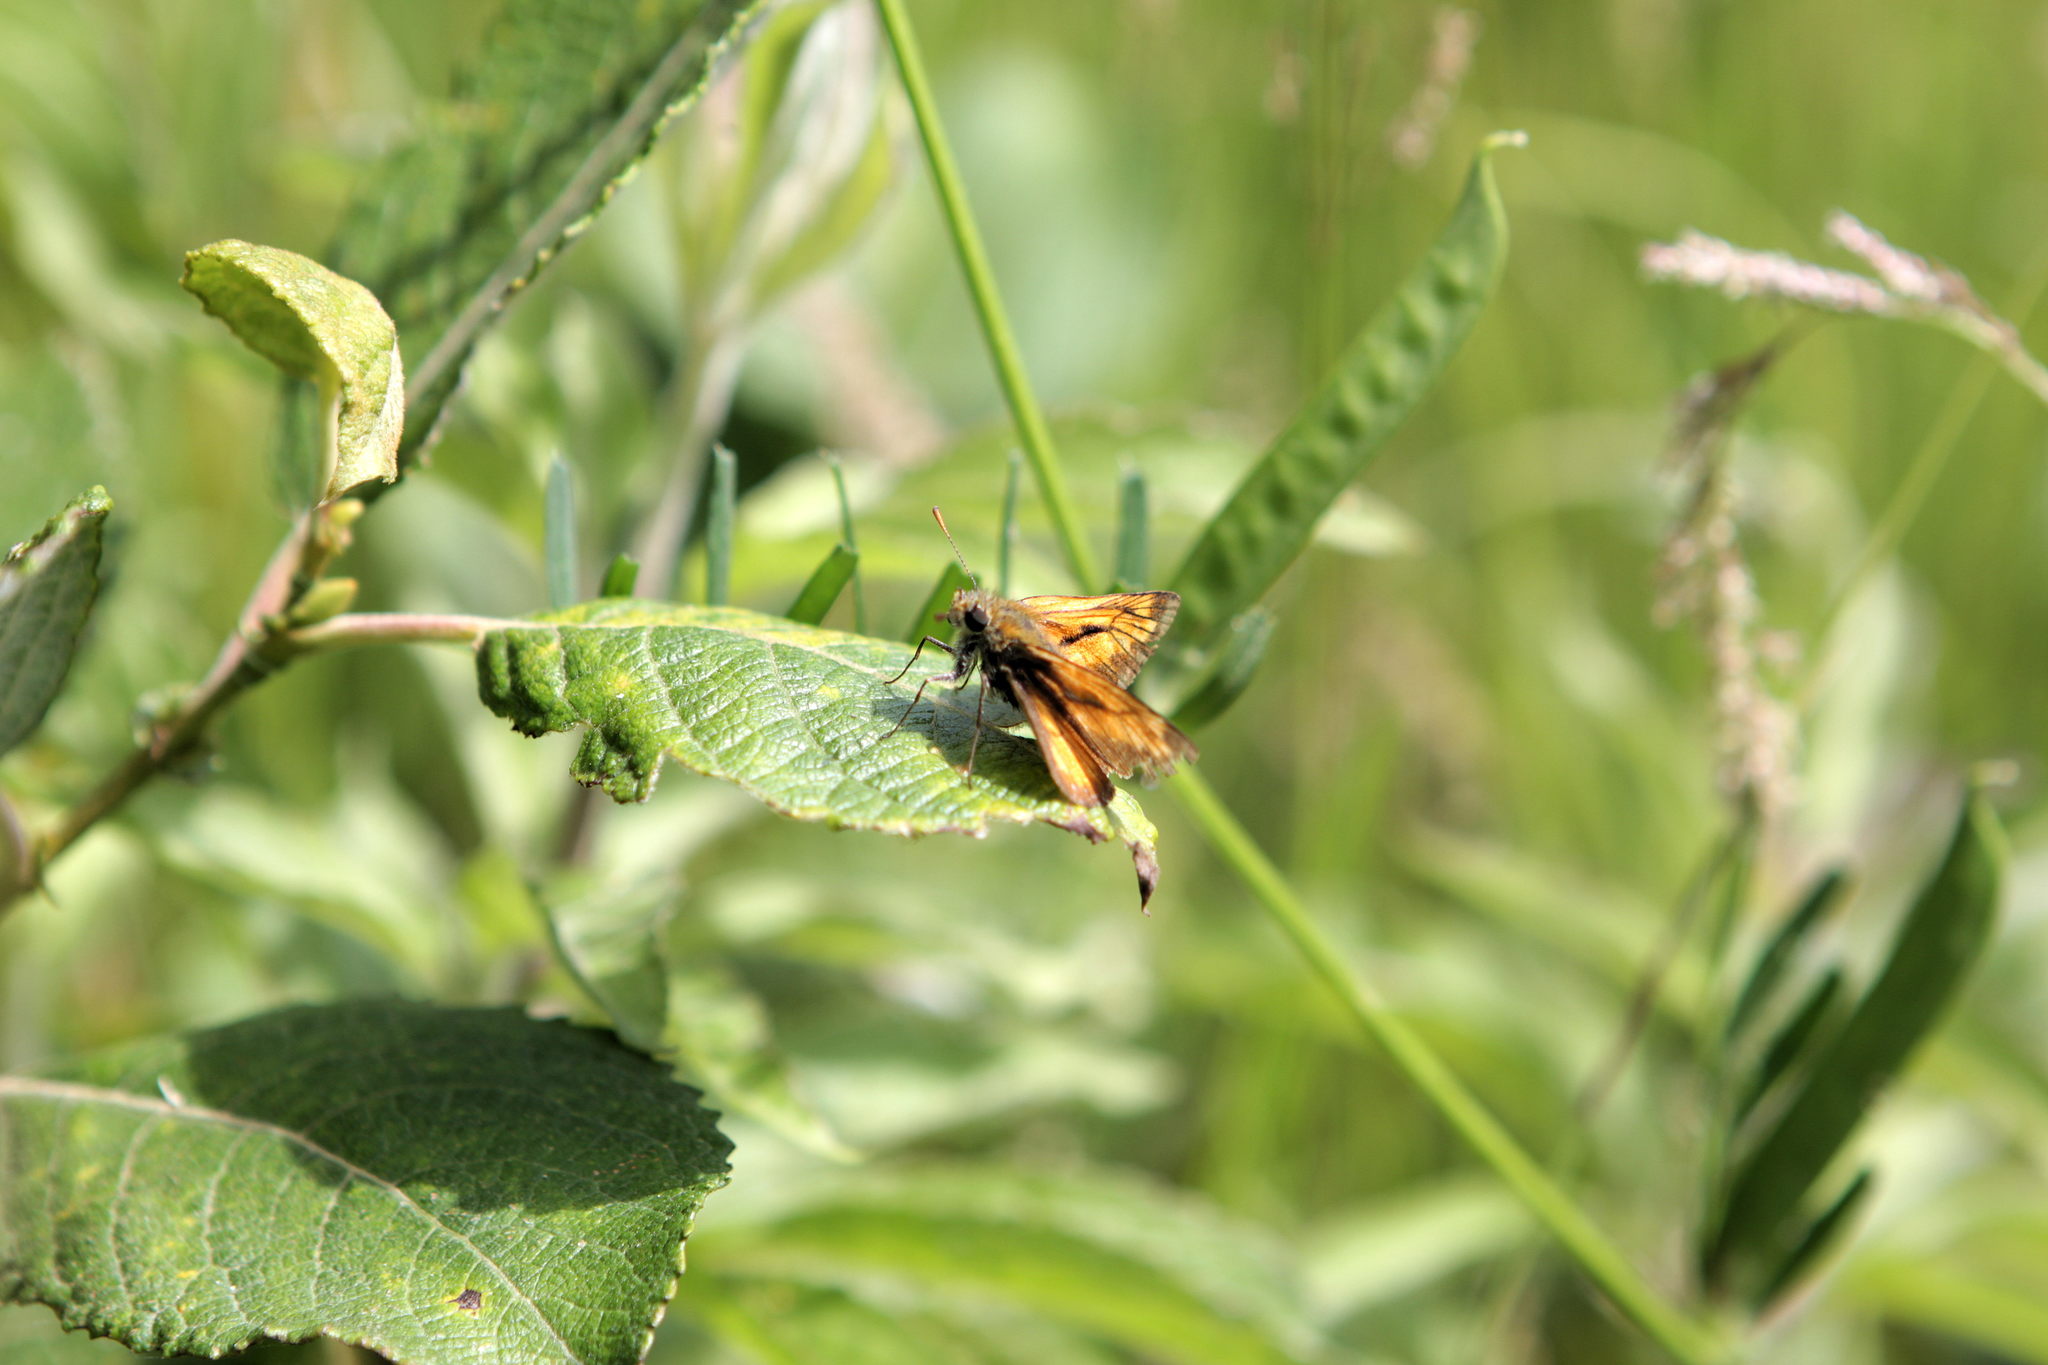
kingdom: Animalia
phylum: Arthropoda
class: Insecta
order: Lepidoptera
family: Hesperiidae
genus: Ochlodes
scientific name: Ochlodes venata
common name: Large skipper
